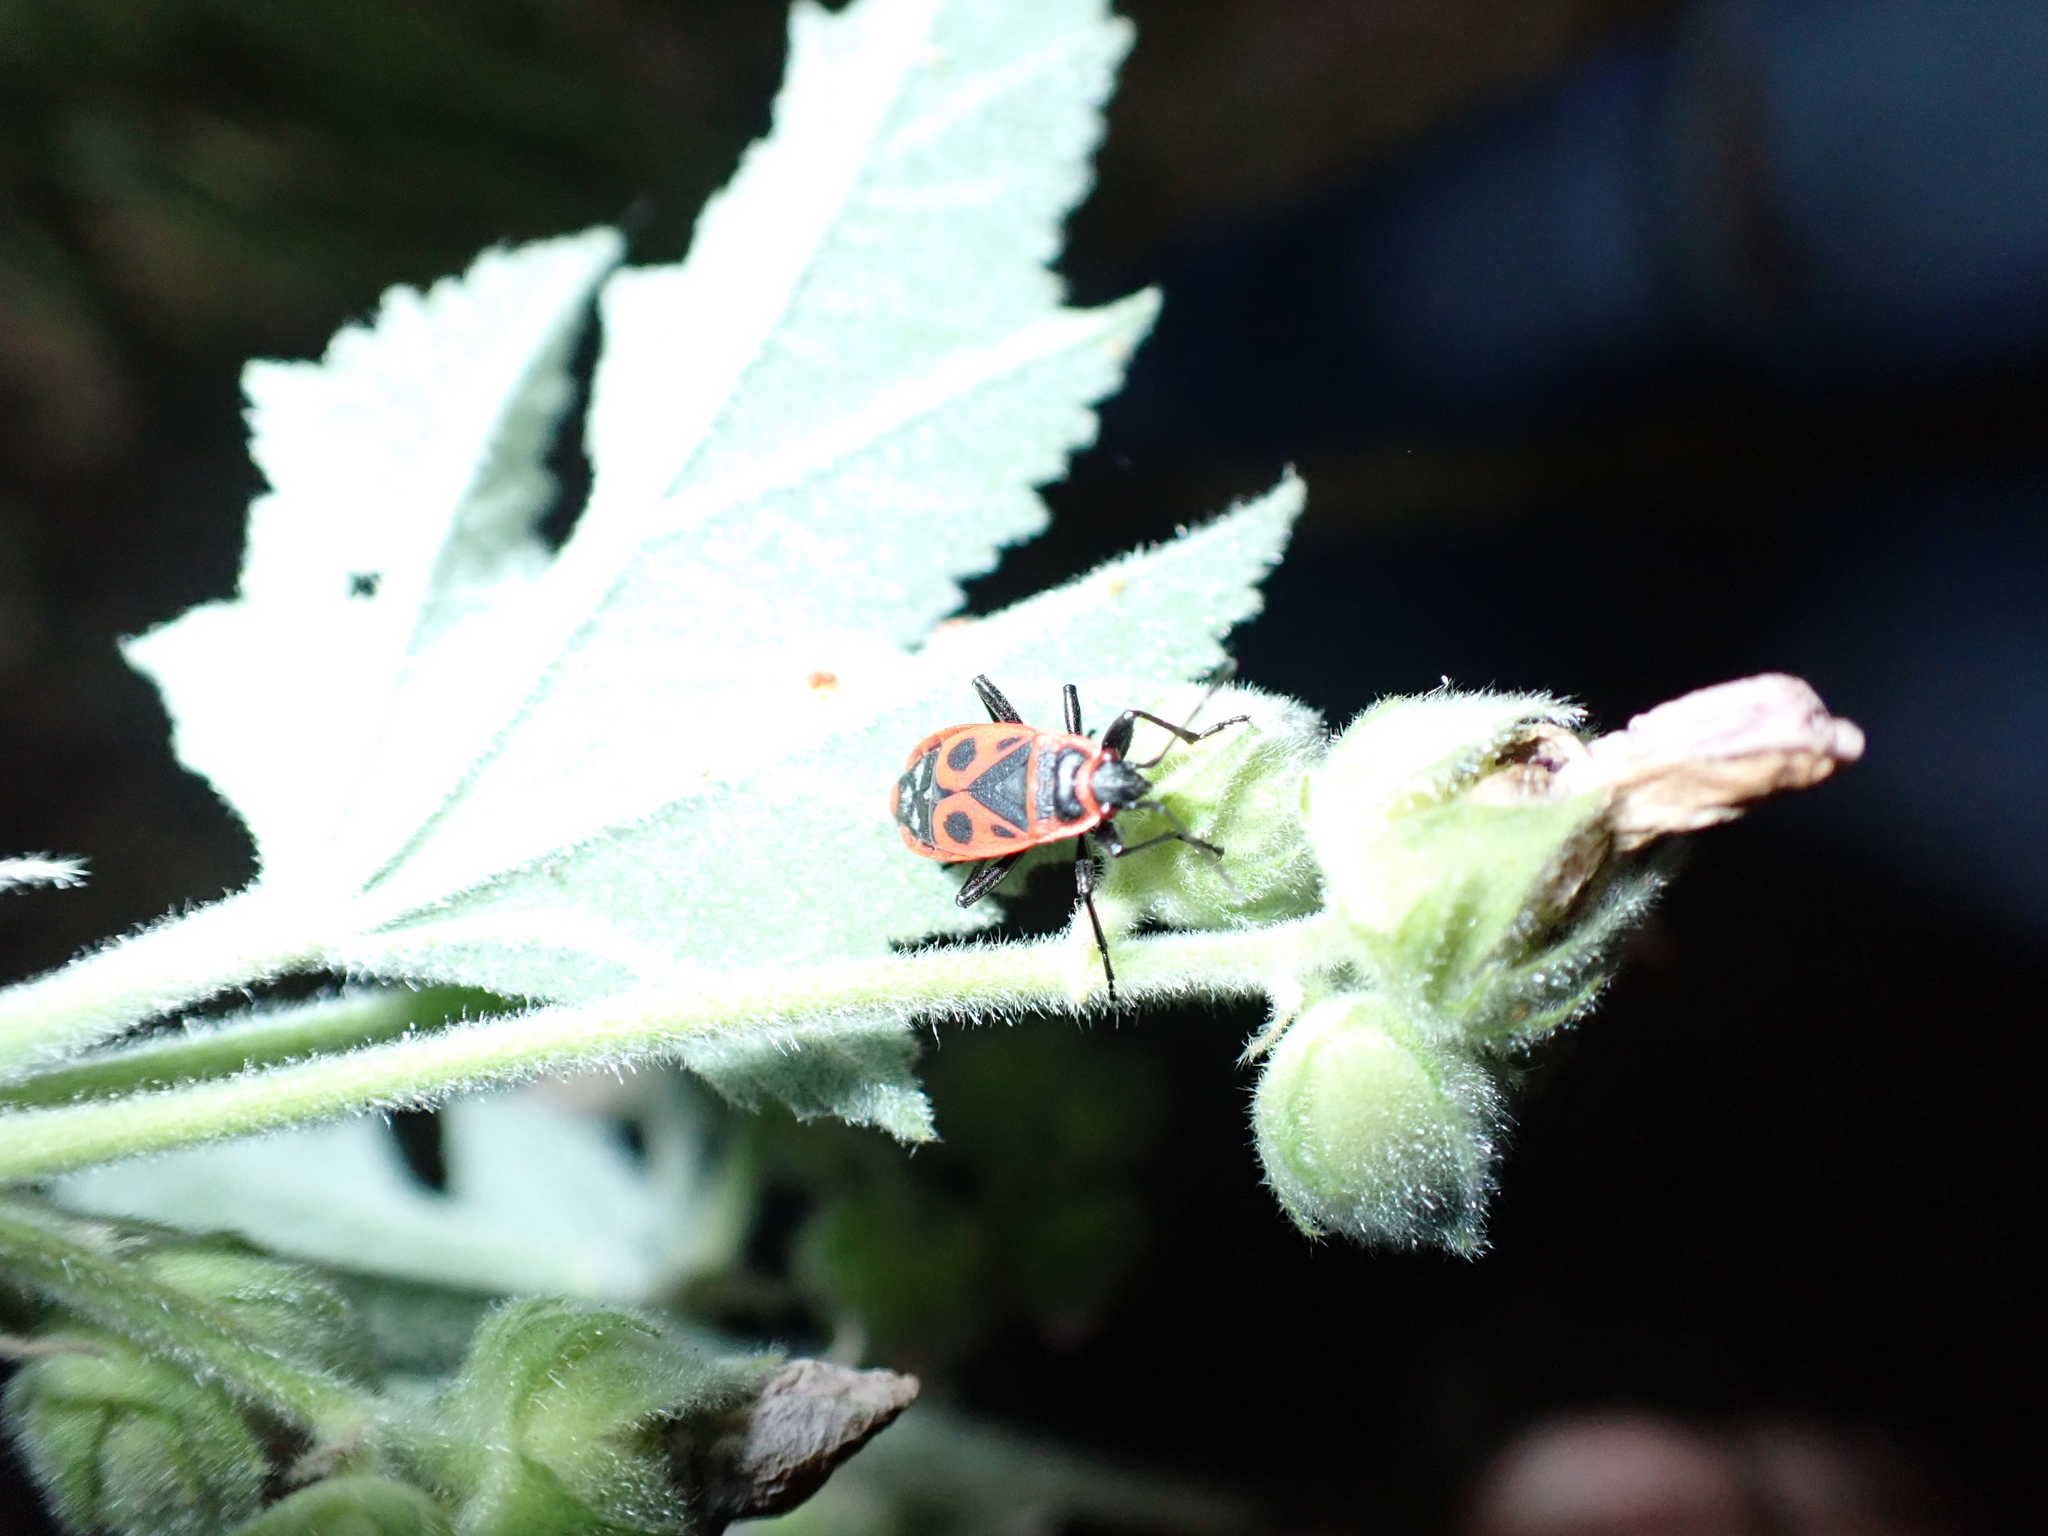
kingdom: Animalia
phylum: Arthropoda
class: Insecta
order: Hemiptera
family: Pyrrhocoridae
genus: Pyrrhocoris
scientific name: Pyrrhocoris apterus
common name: Firebug
